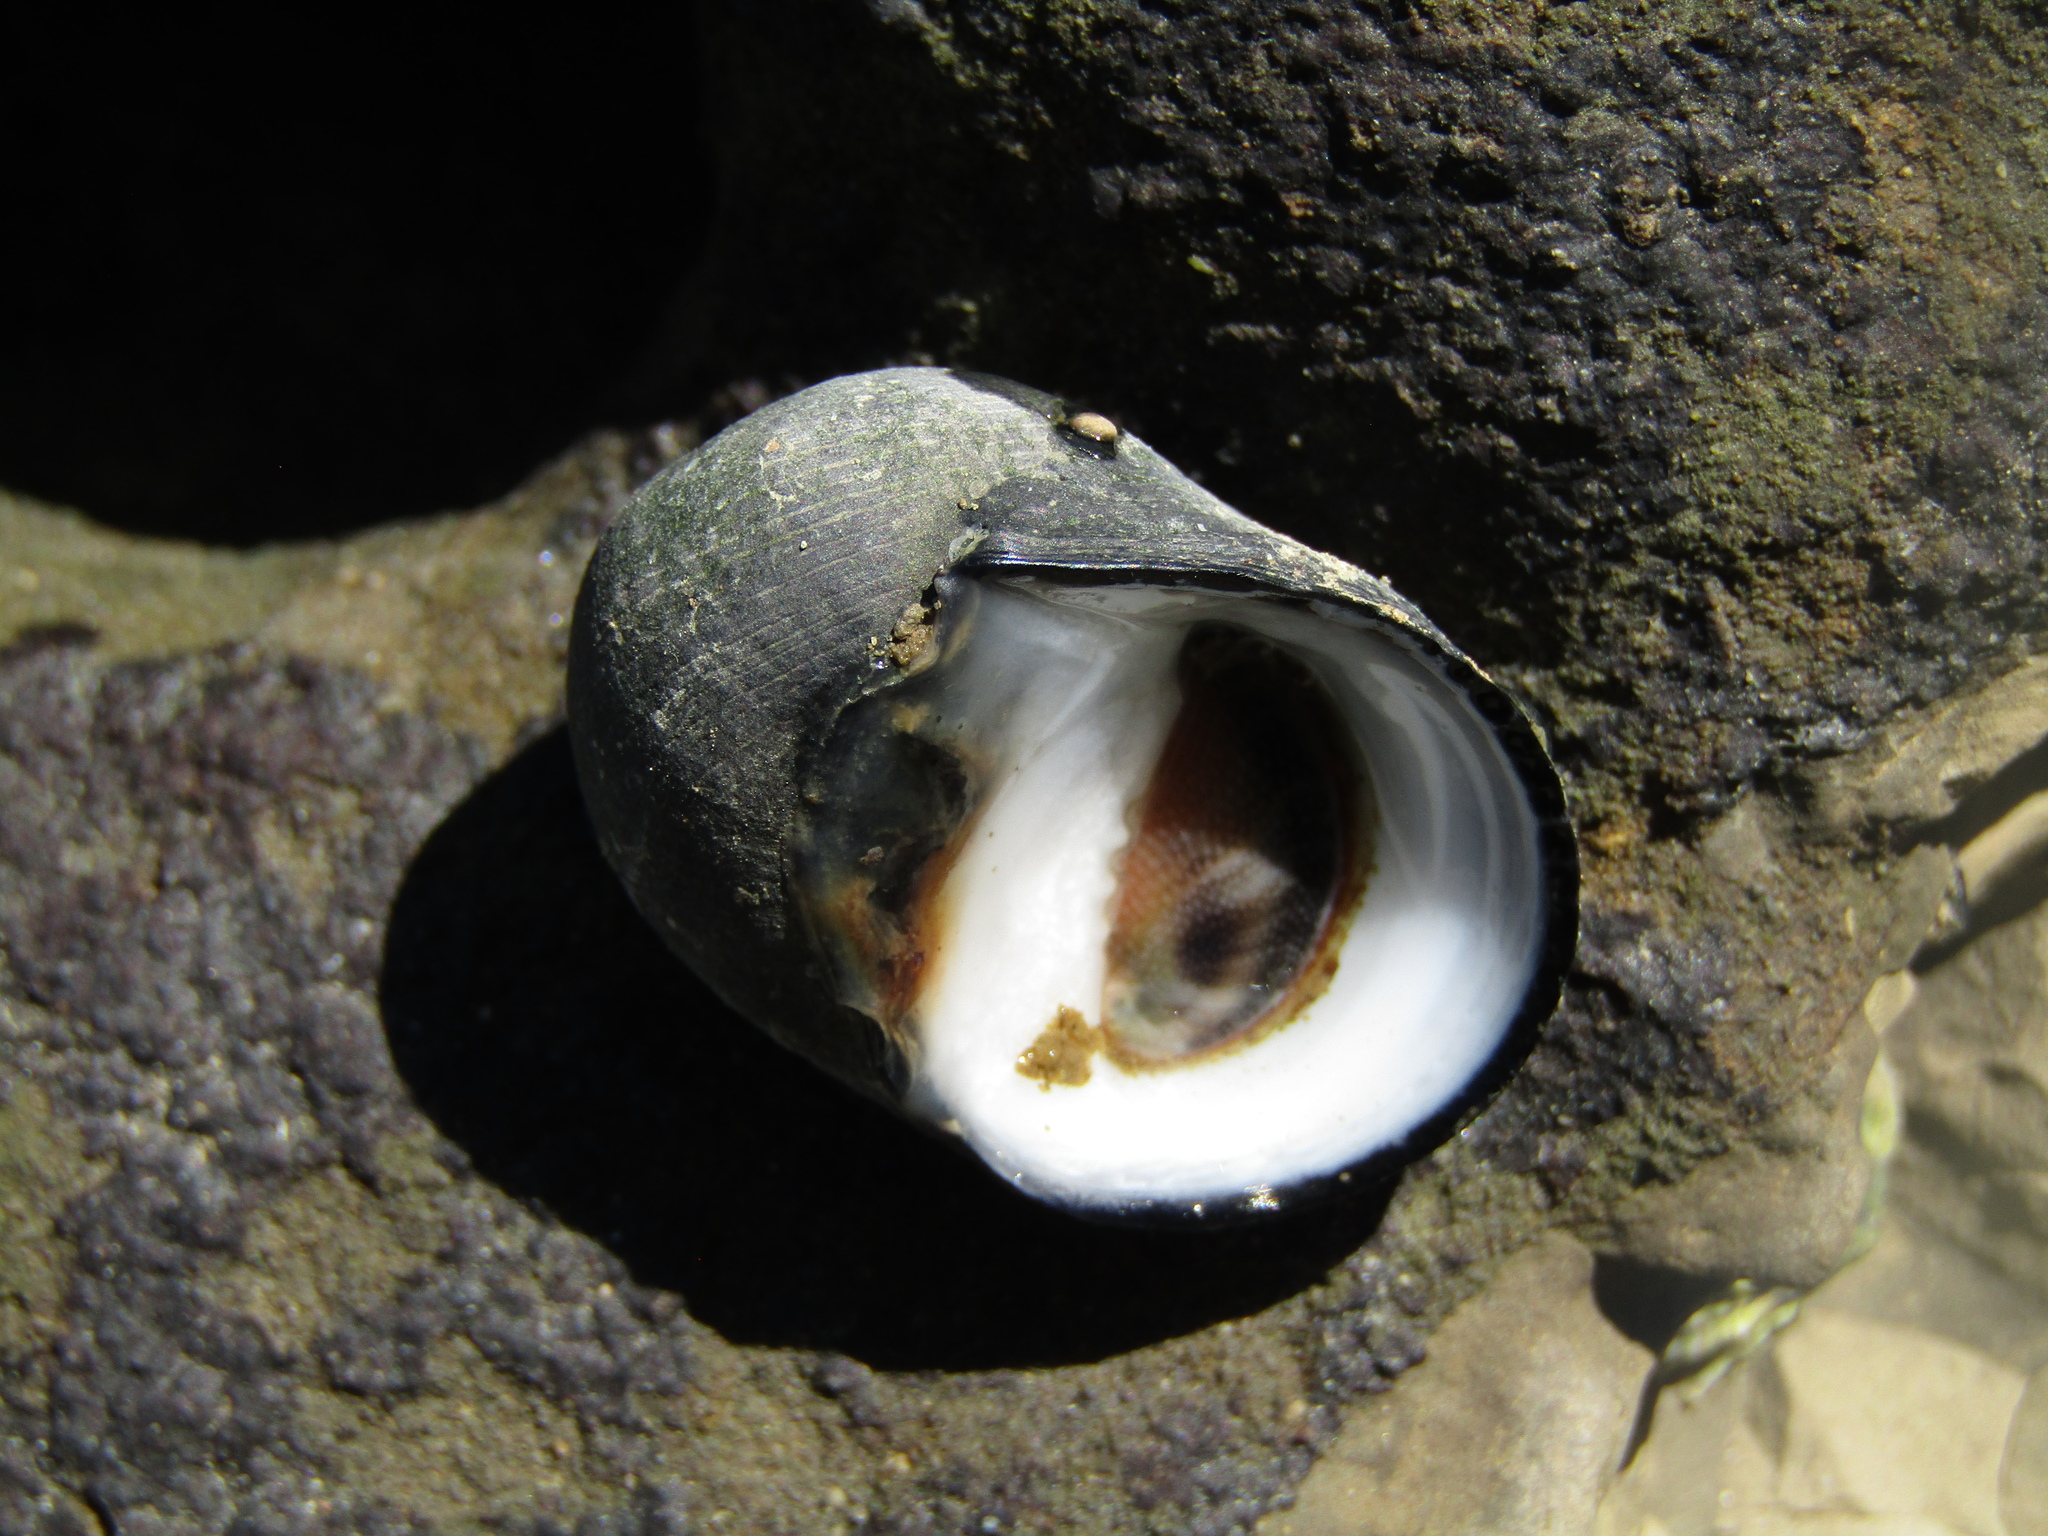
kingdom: Animalia
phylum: Mollusca
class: Gastropoda
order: Cycloneritida
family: Neritidae
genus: Nerita
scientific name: Nerita melanotragus
